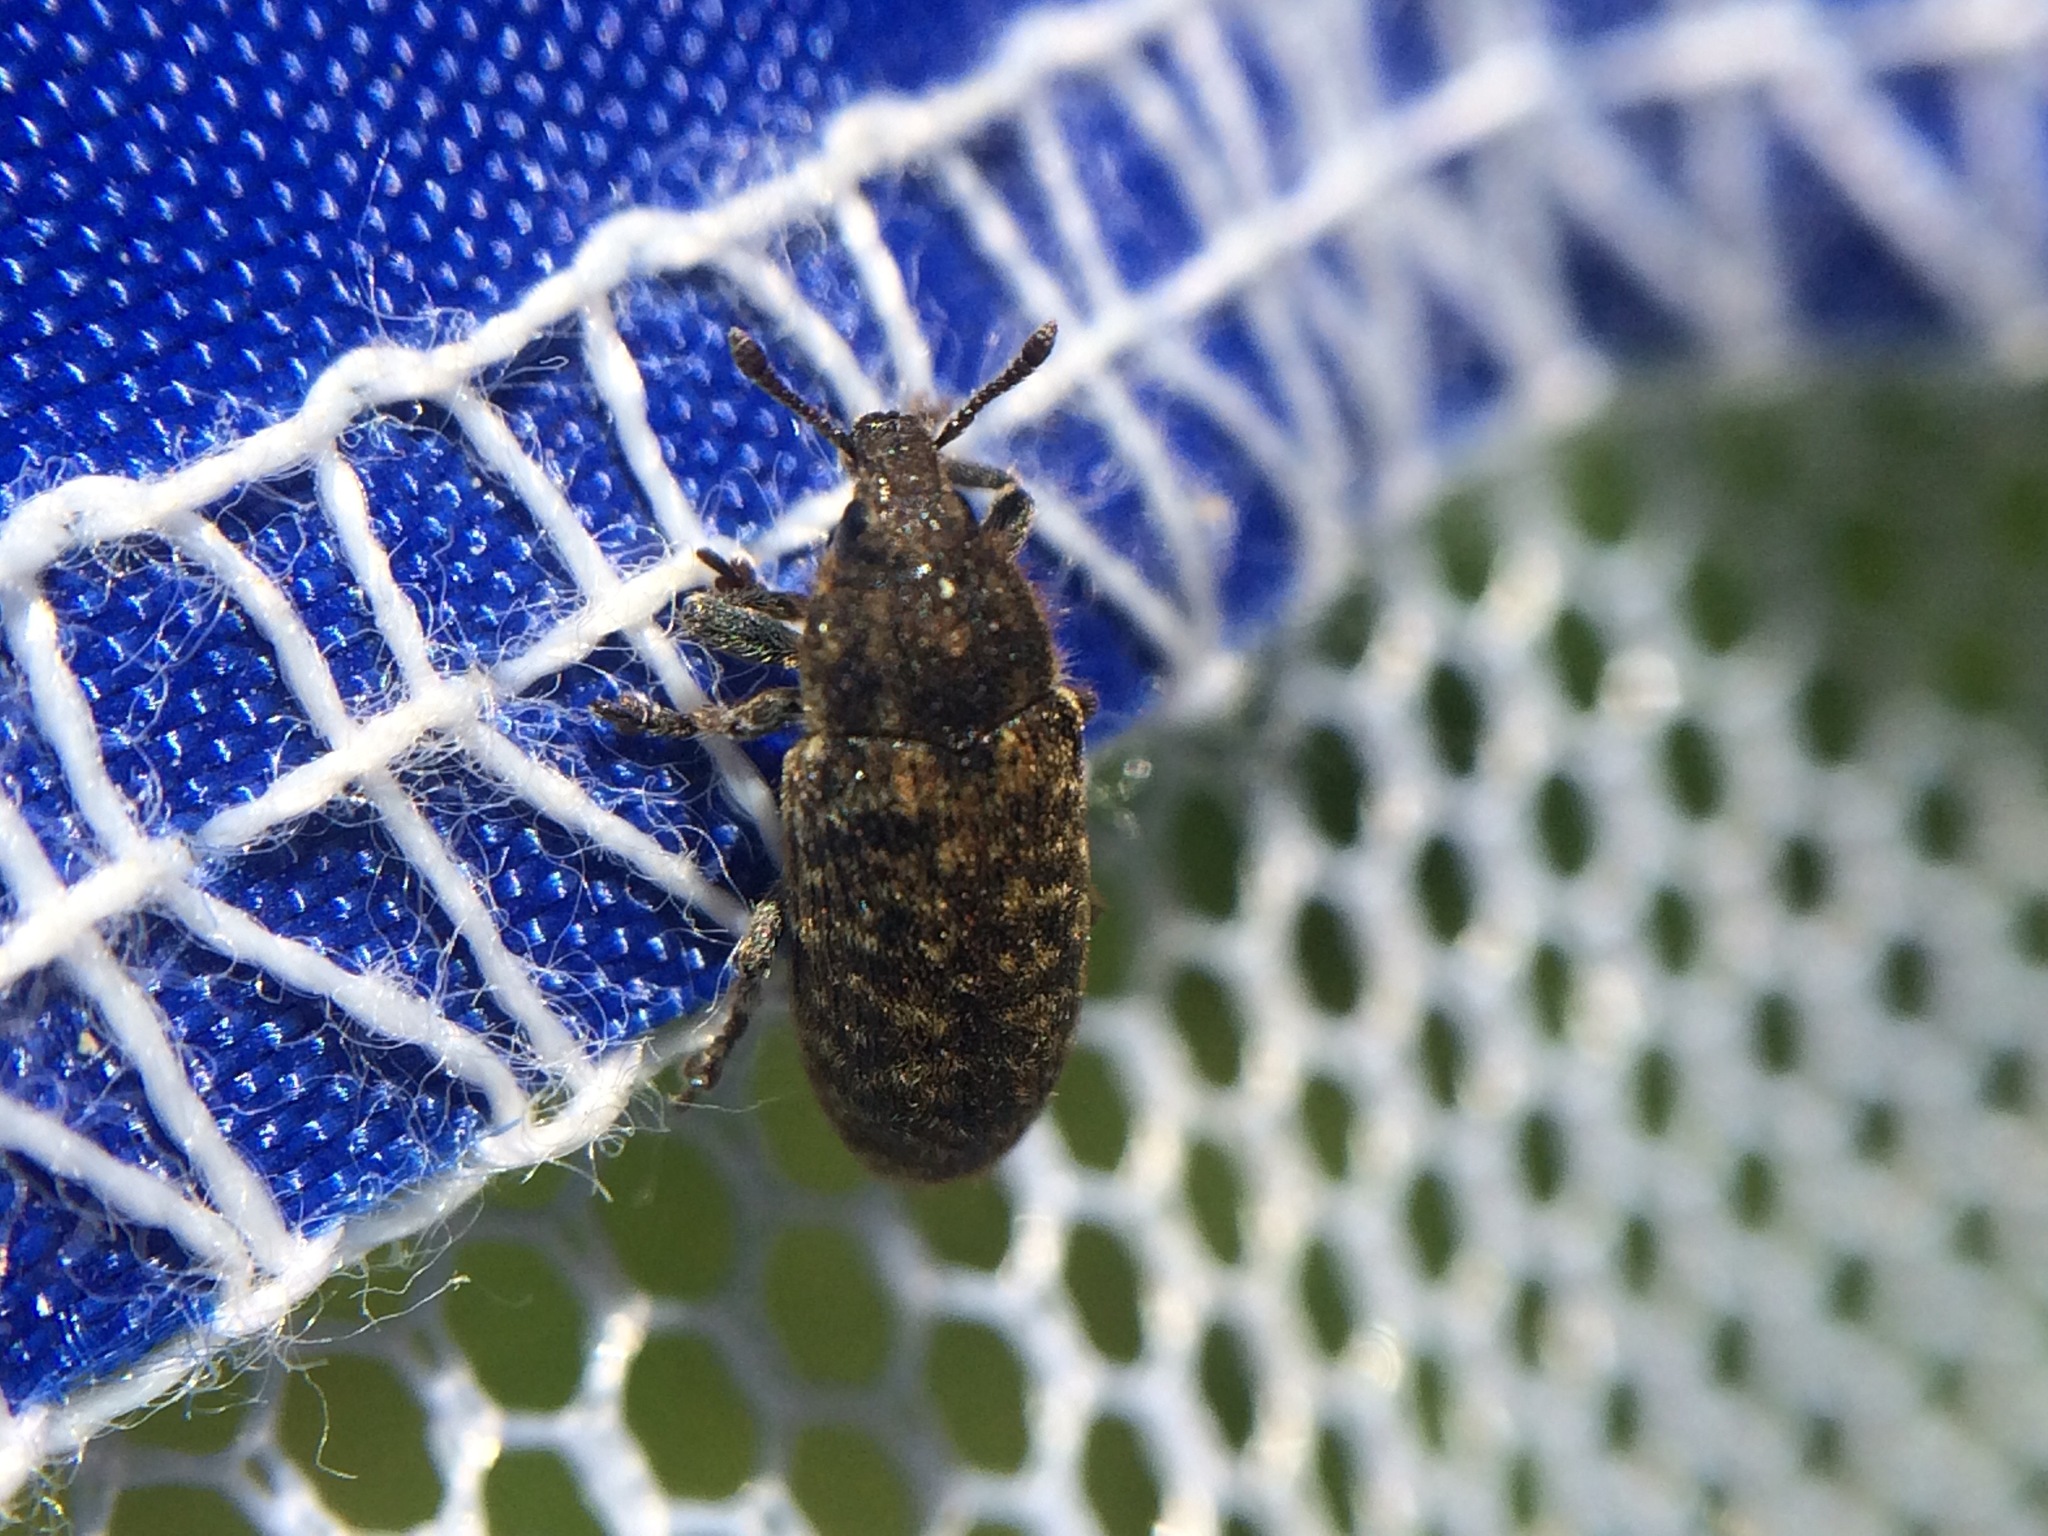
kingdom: Animalia
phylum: Arthropoda
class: Insecta
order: Coleoptera
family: Curculionidae
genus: Rhinocyllus
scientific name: Rhinocyllus conicus
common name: Weevil
